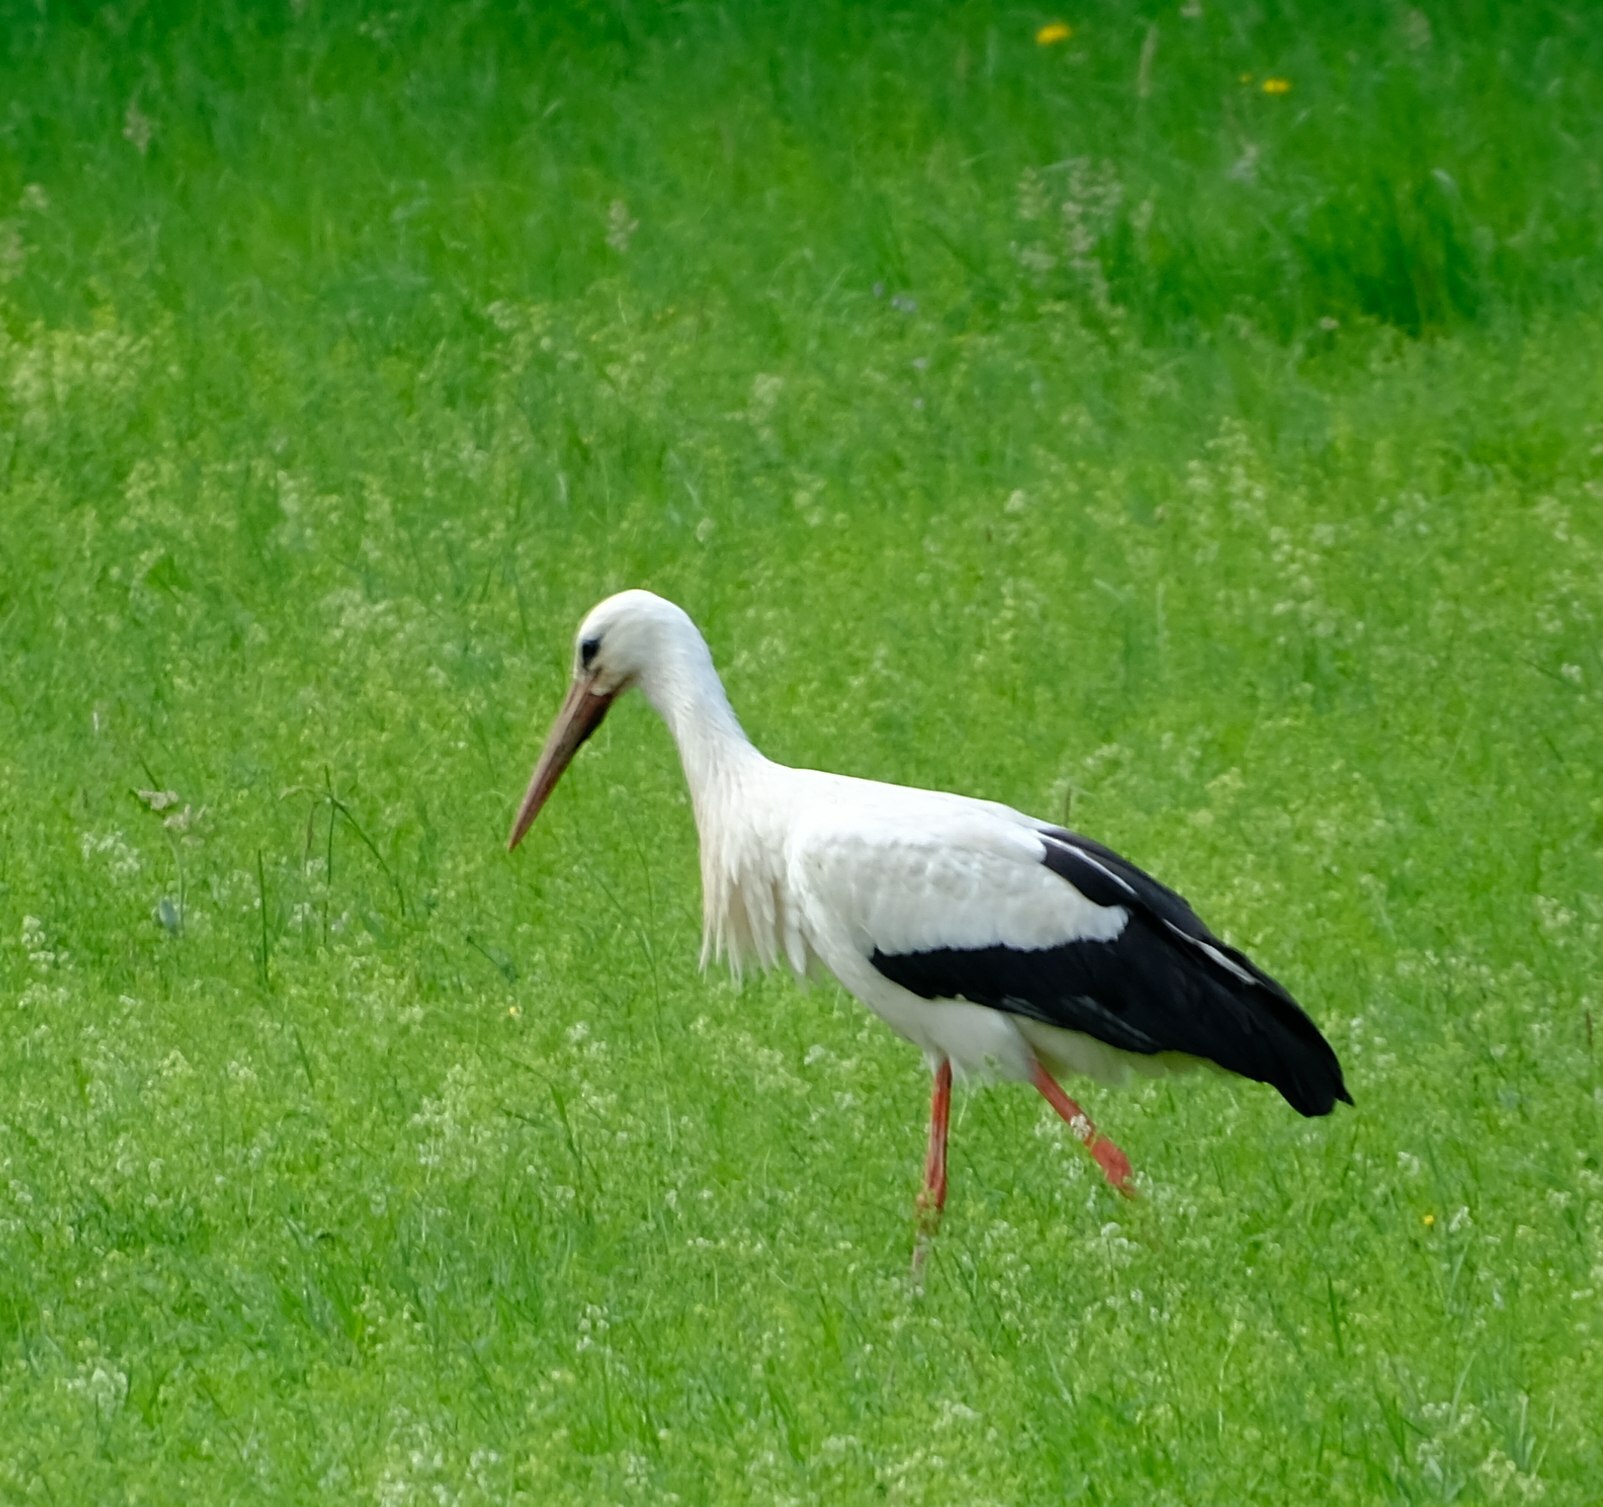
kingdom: Animalia
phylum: Chordata
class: Aves
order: Ciconiiformes
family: Ciconiidae
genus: Ciconia
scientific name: Ciconia ciconia
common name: White stork
